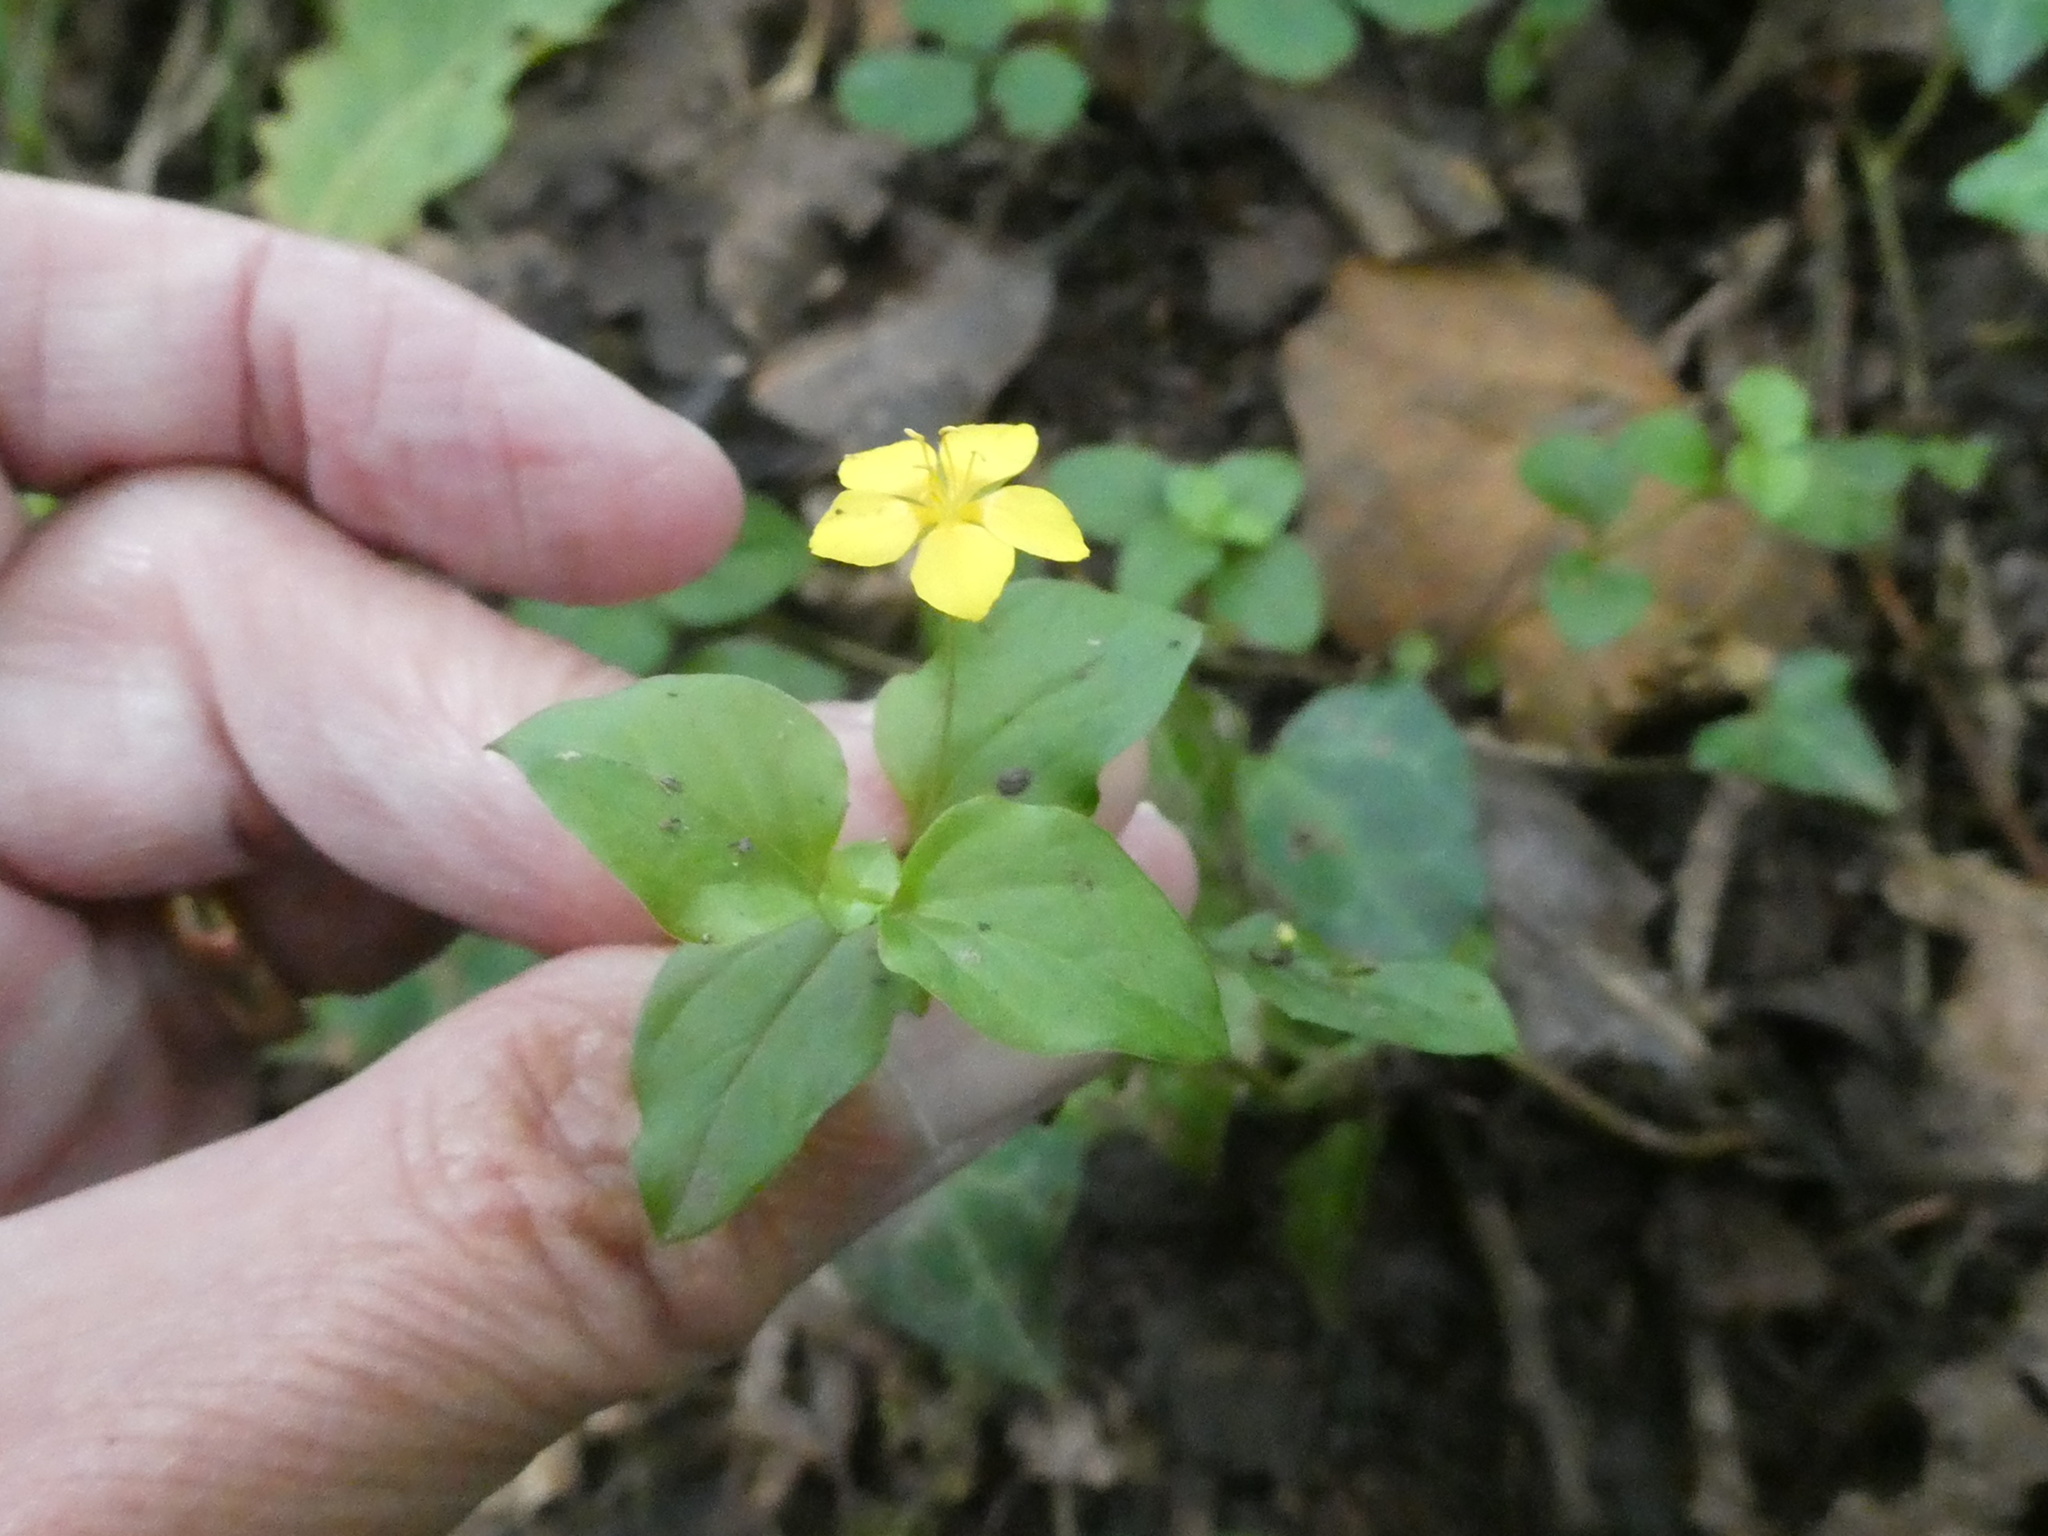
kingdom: Plantae
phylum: Tracheophyta
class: Magnoliopsida
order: Ericales
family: Primulaceae
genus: Lysimachia
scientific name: Lysimachia nemorum
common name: Yellow pimpernel
